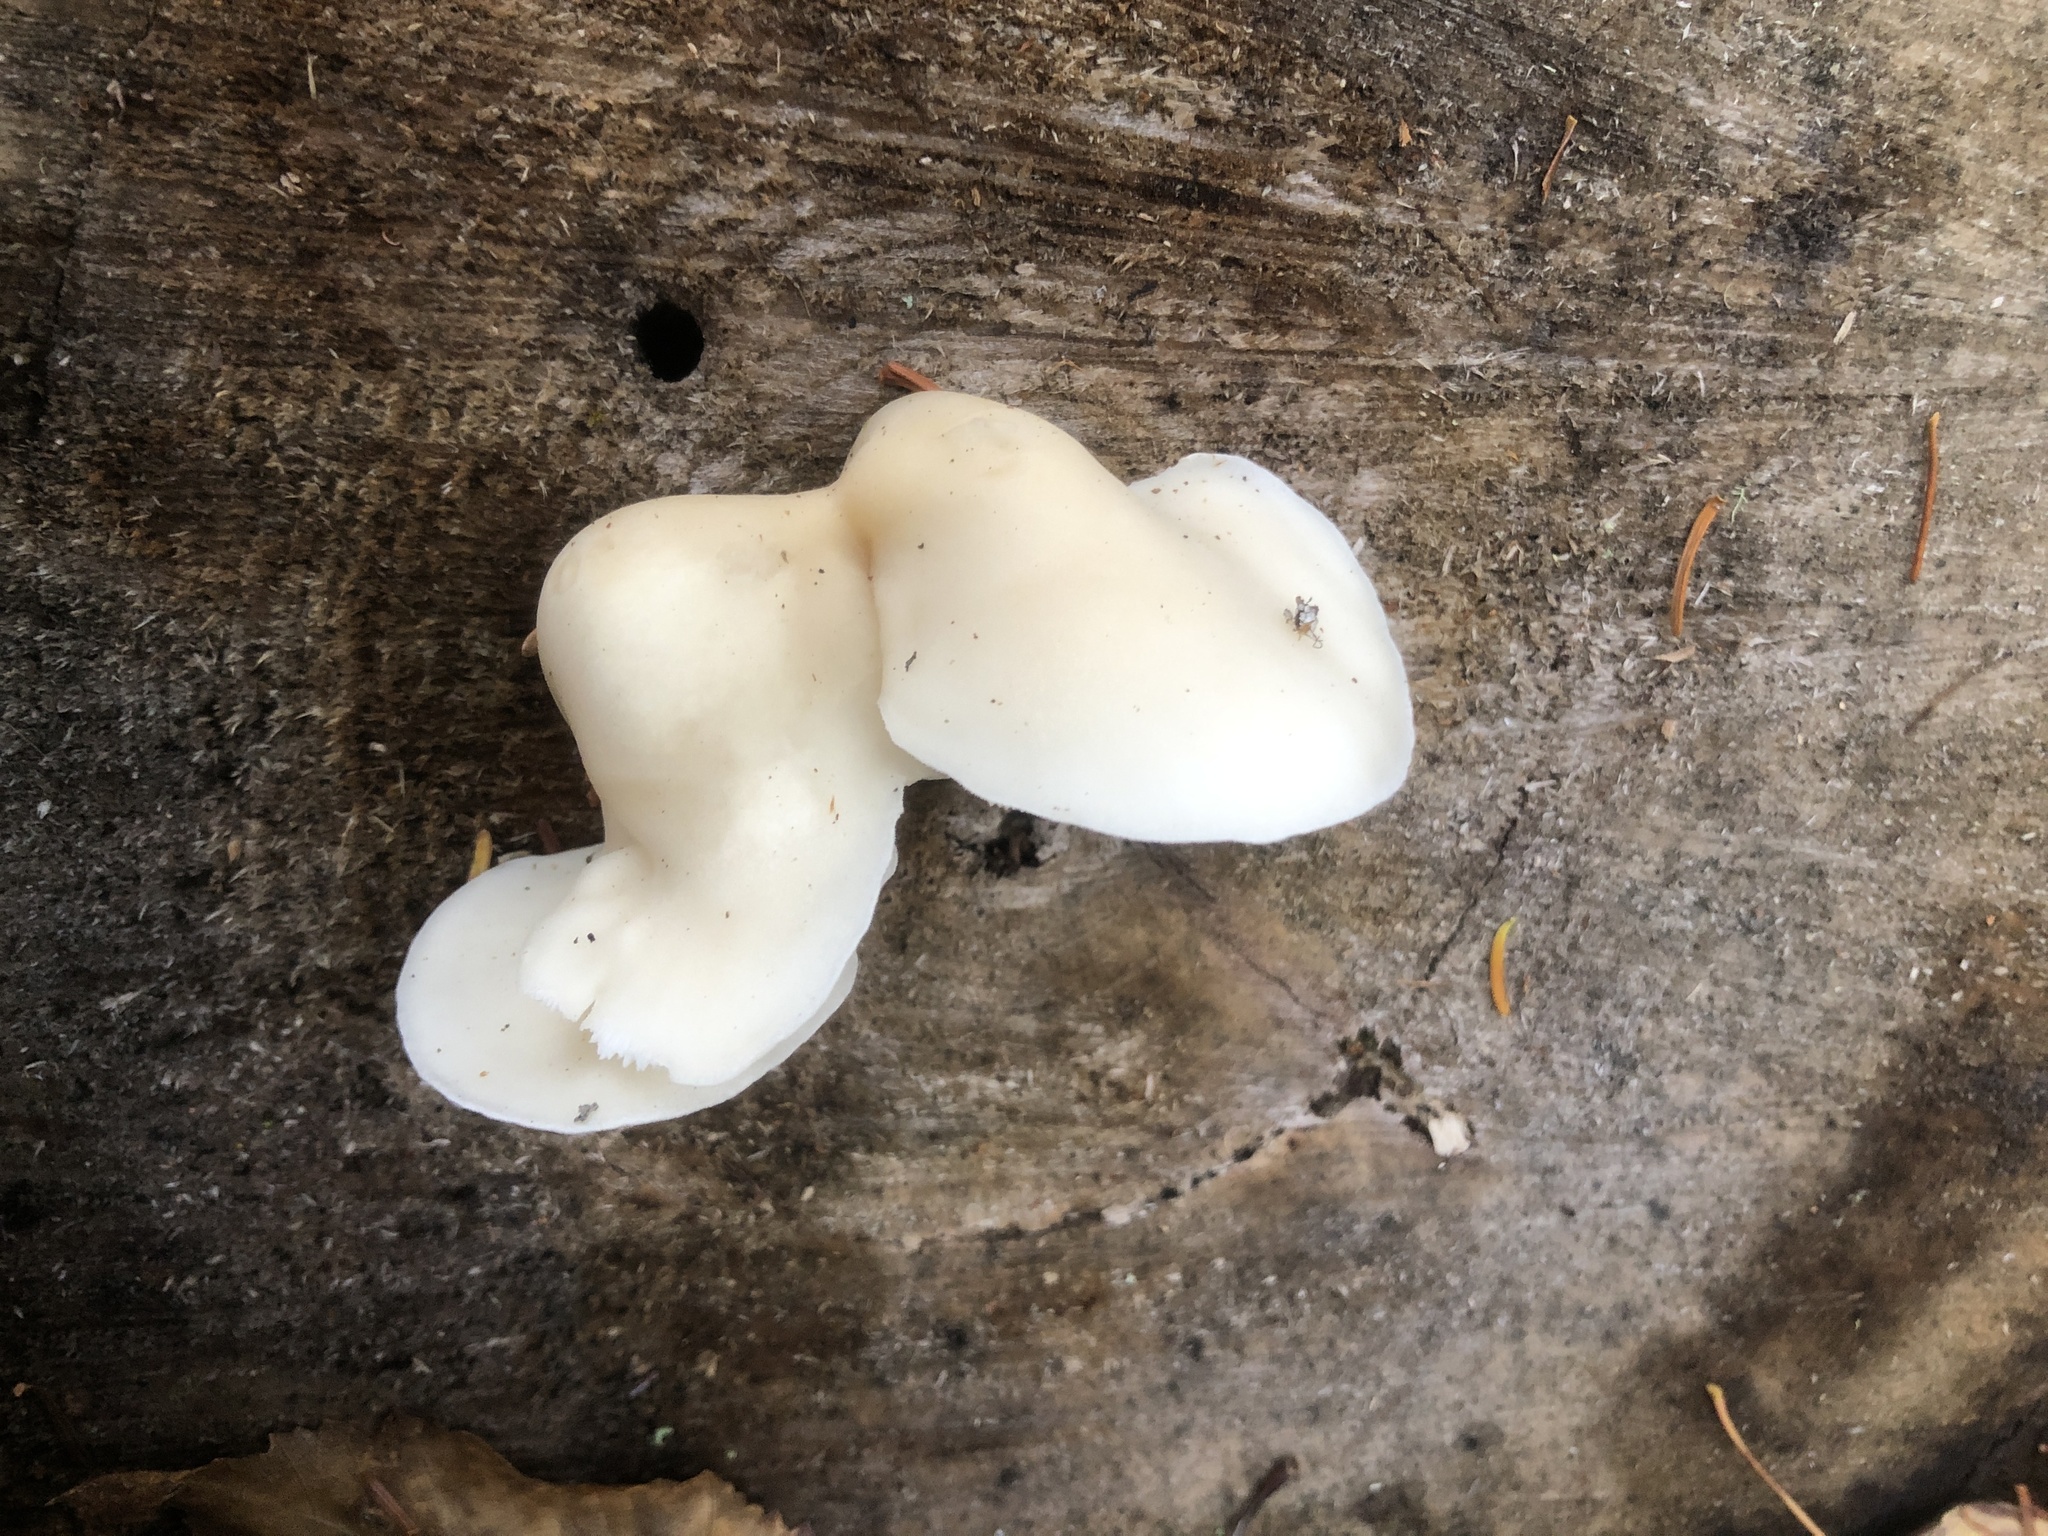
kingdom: Fungi
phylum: Basidiomycota
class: Agaricomycetes
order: Agaricales
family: Pleurotaceae
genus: Pleurotus
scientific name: Pleurotus ostreatus
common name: Oyster mushroom
